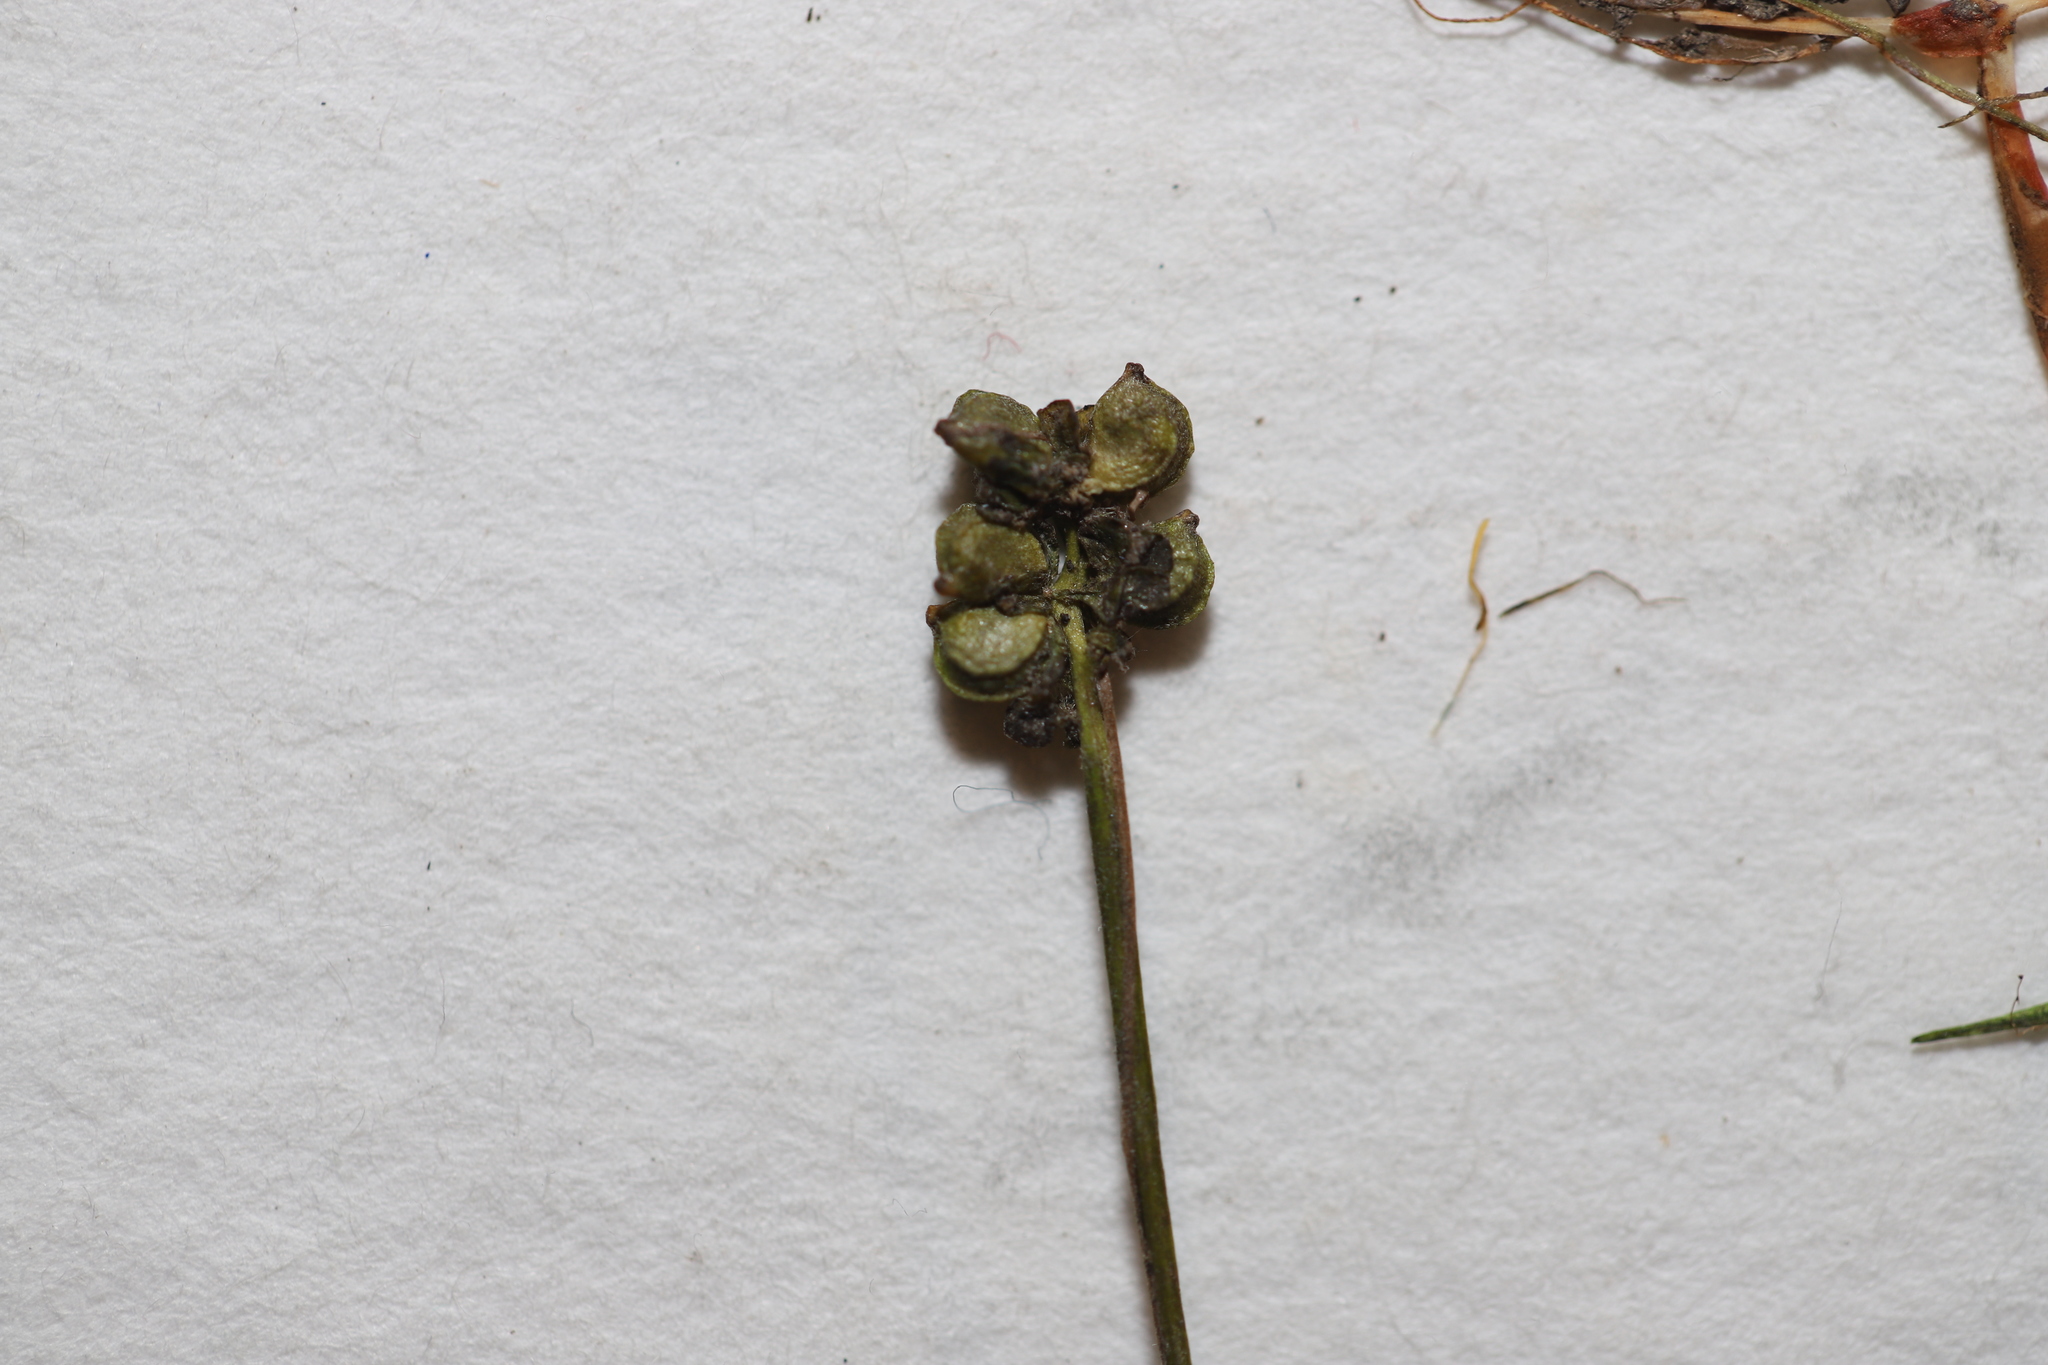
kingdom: Plantae
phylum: Tracheophyta
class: Liliopsida
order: Alismatales
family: Potamogetonaceae
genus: Potamogeton
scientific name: Potamogeton confervoides
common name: Alga pondweed
